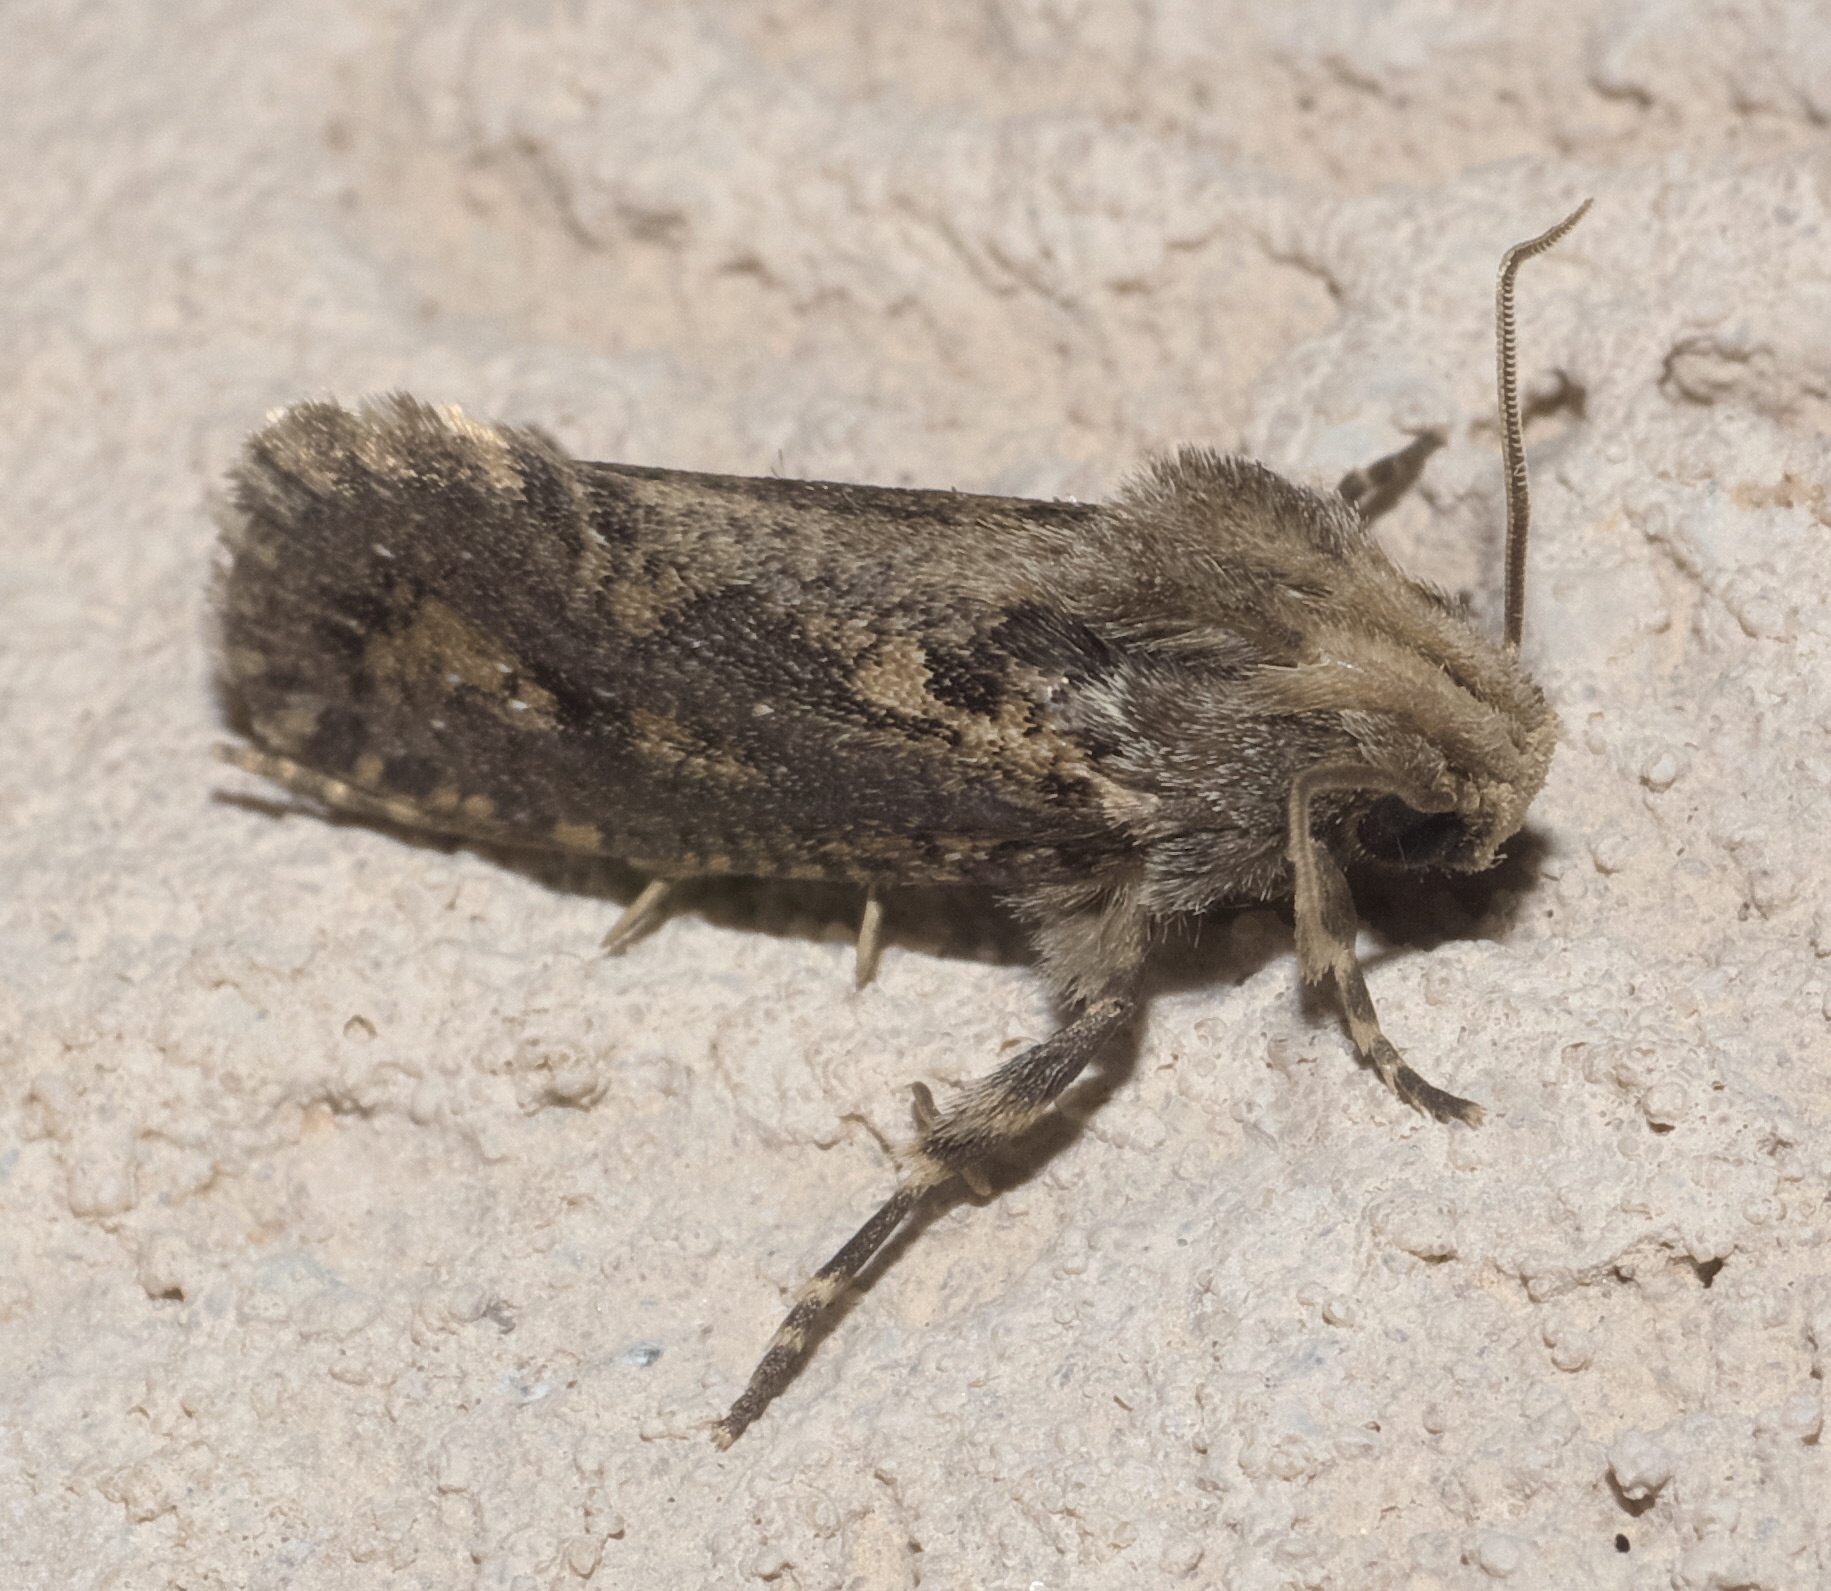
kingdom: Animalia
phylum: Arthropoda
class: Insecta
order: Lepidoptera
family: Tineidae
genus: Acrolophus
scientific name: Acrolophus popeanella
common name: Clemens' grass tubeworm moth
